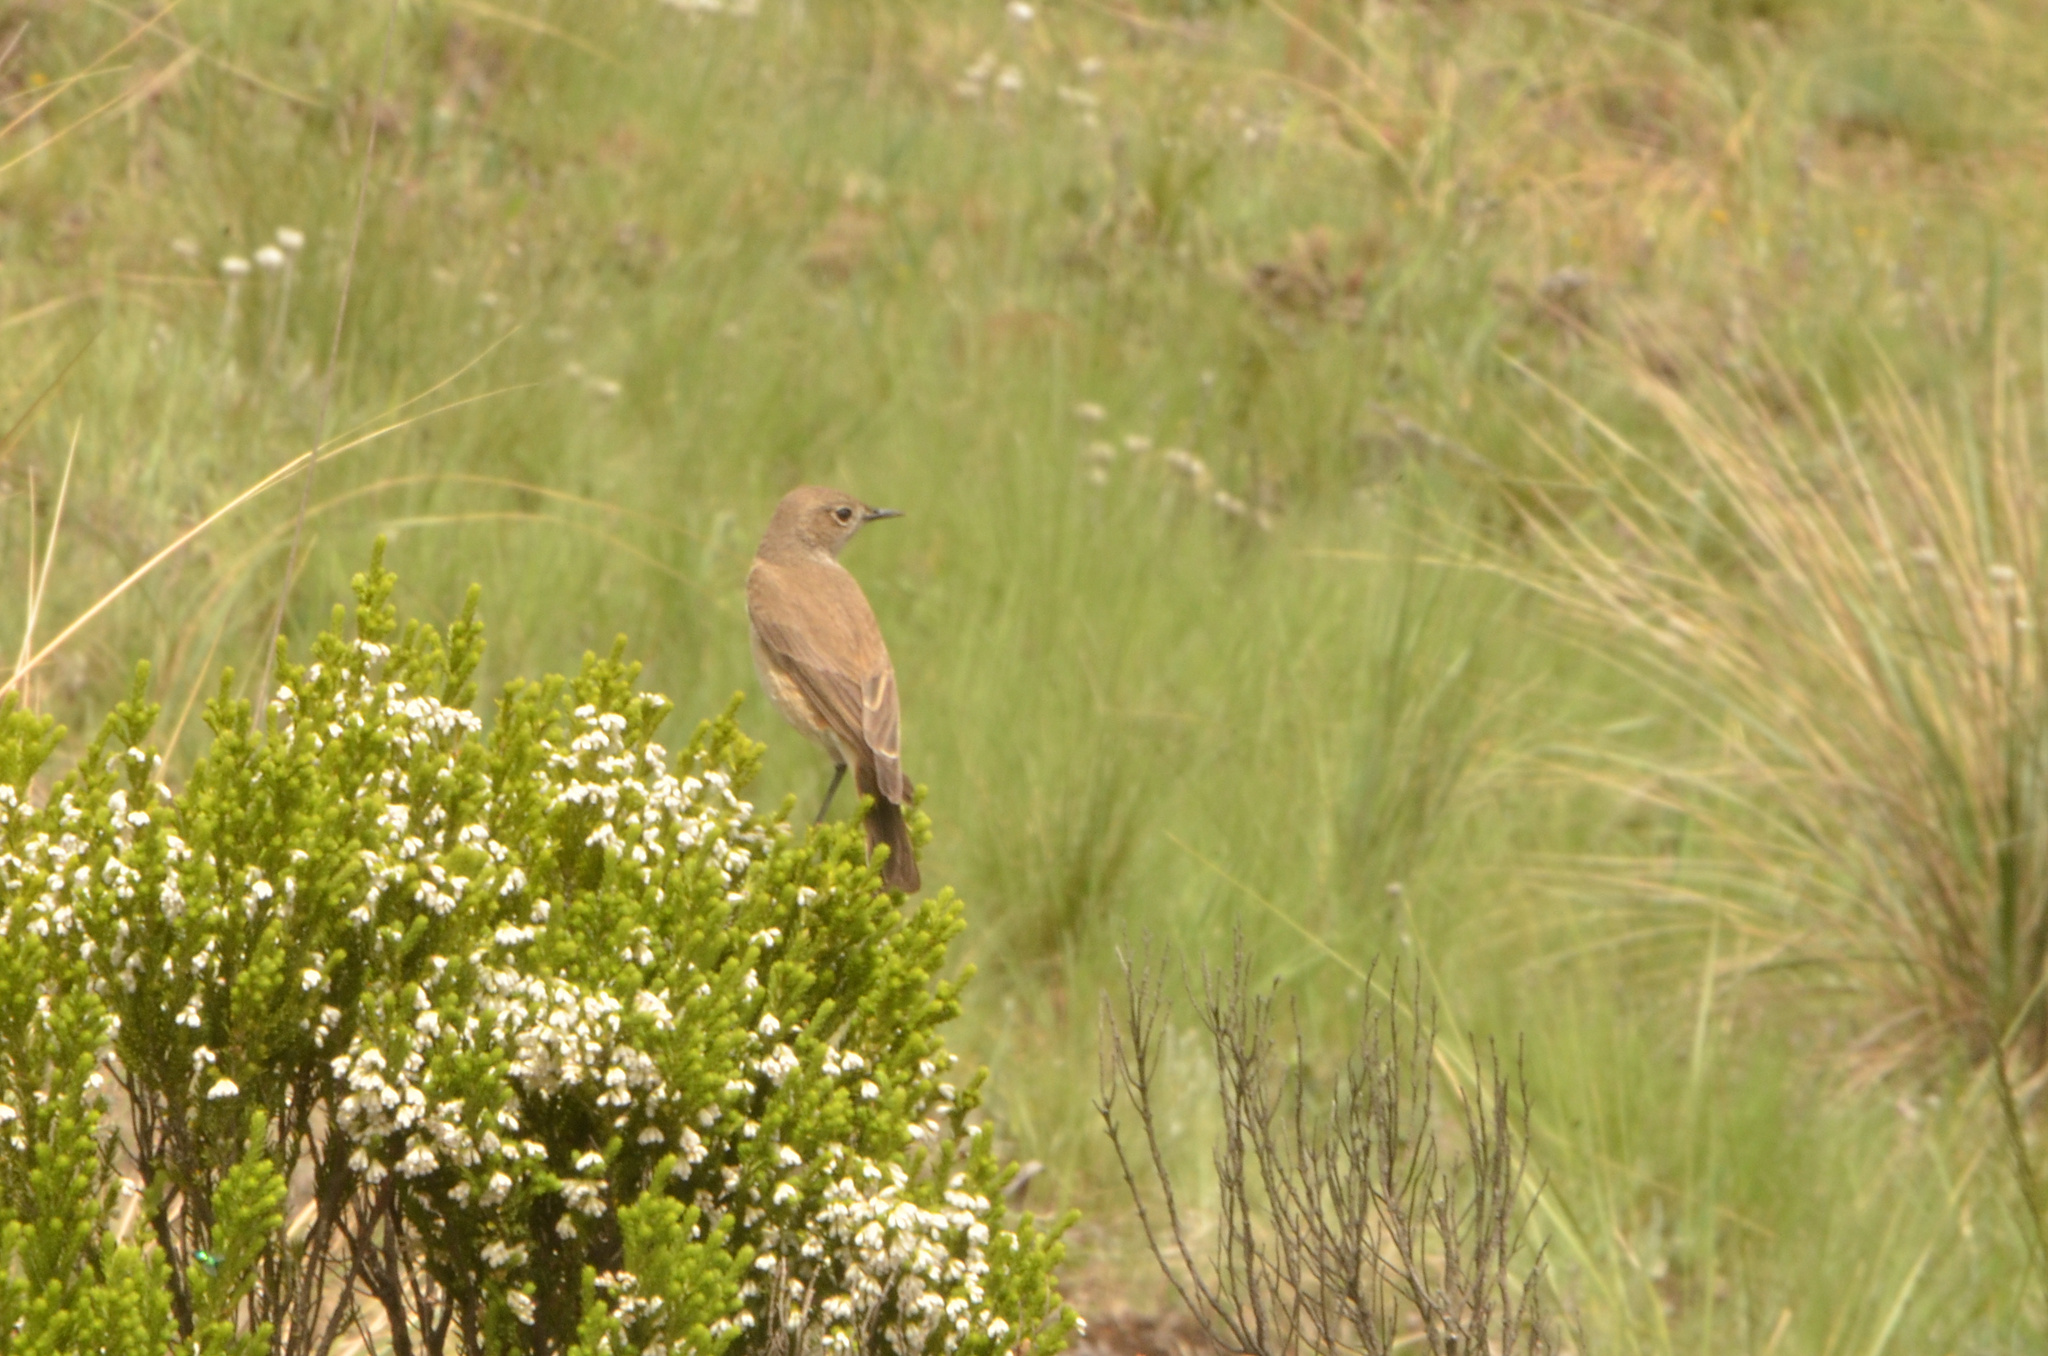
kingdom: Animalia
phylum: Chordata
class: Aves
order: Passeriformes
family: Muscicapidae
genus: Emarginata
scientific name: Emarginata sinuata
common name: Sickle-winged chat
